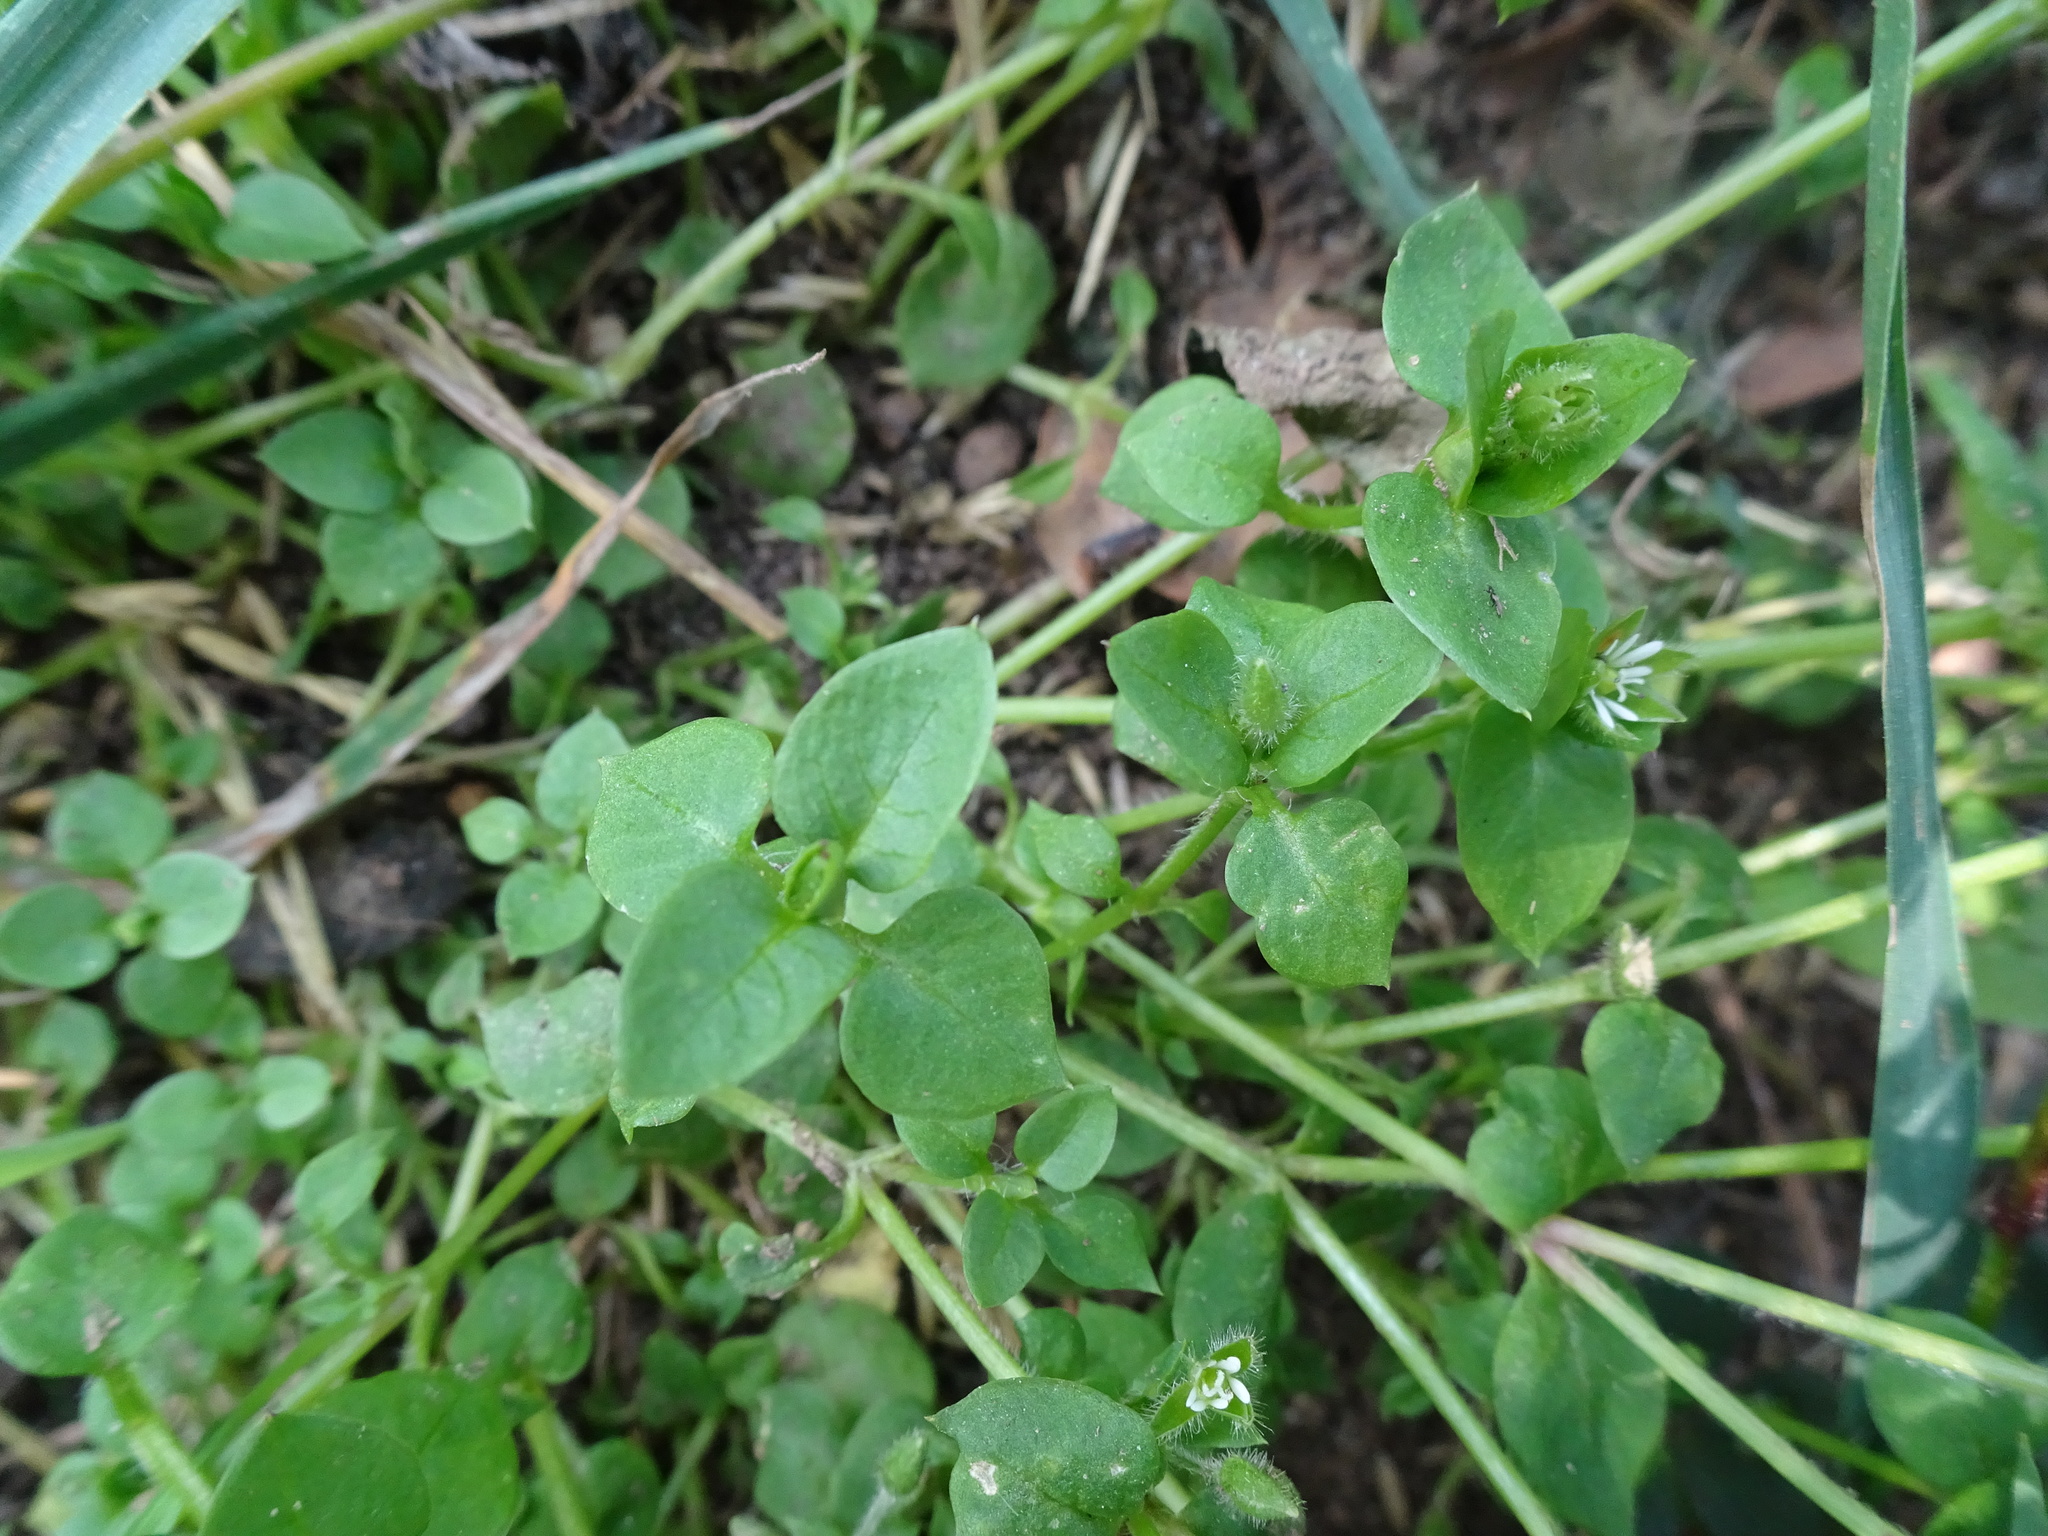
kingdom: Plantae
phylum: Tracheophyta
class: Magnoliopsida
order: Caryophyllales
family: Caryophyllaceae
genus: Stellaria
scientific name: Stellaria media
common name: Common chickweed
